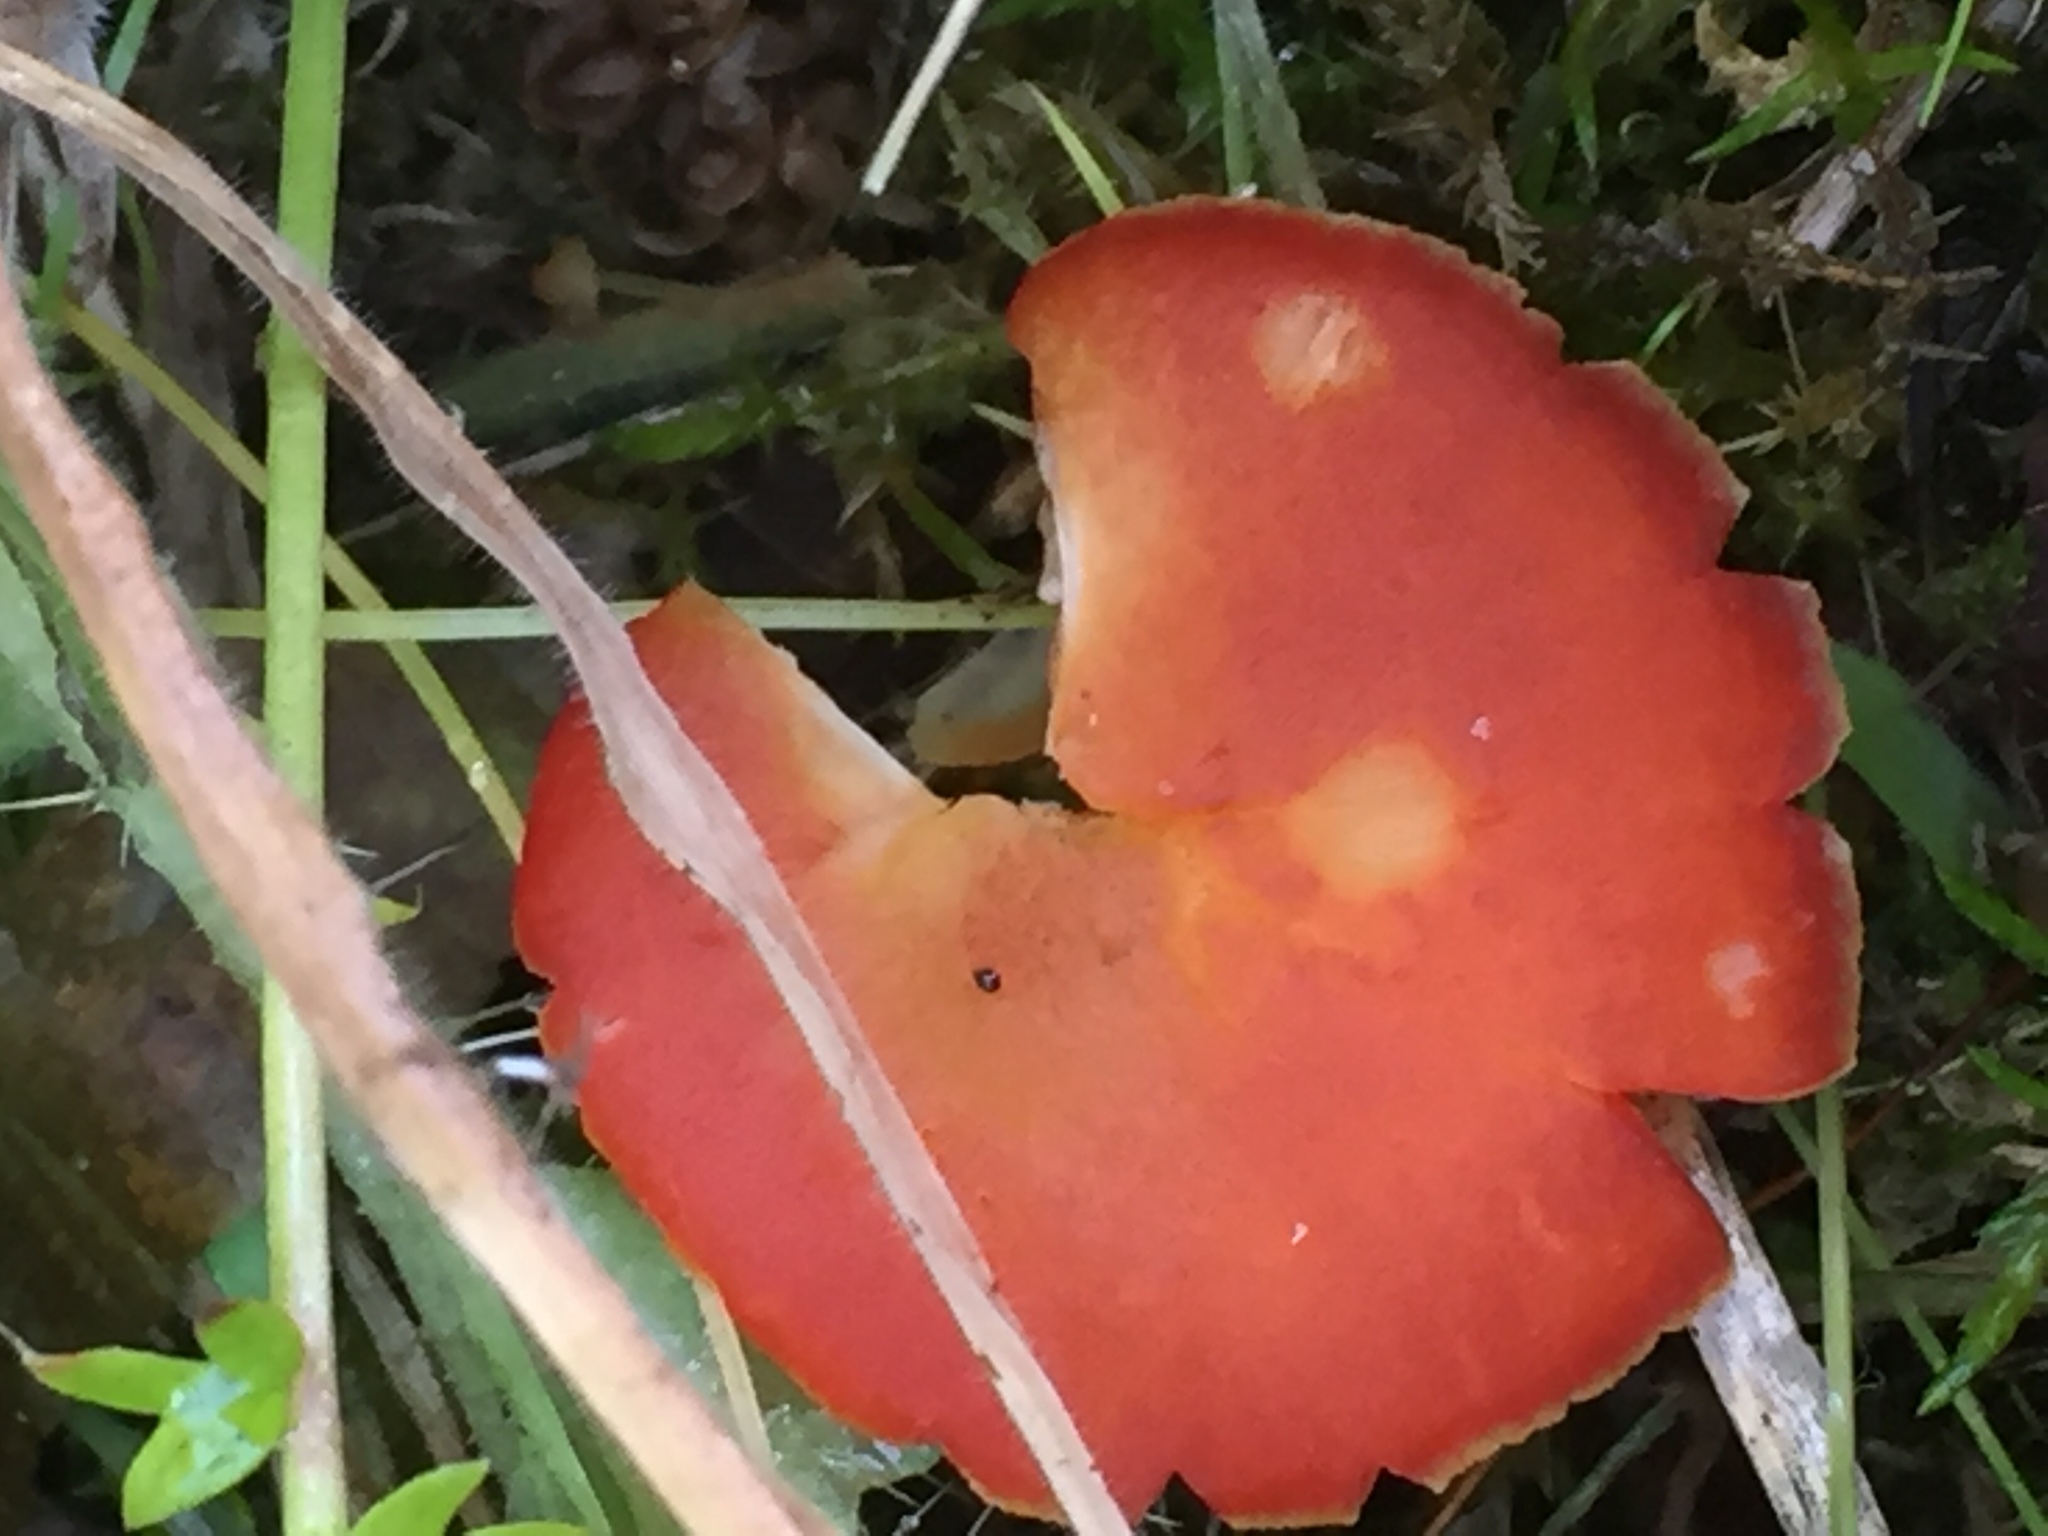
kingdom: Fungi
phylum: Basidiomycota
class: Agaricomycetes
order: Agaricales
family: Hygrophoraceae
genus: Hygrocybe
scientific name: Hygrocybe coccinea
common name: Scarlet hood
